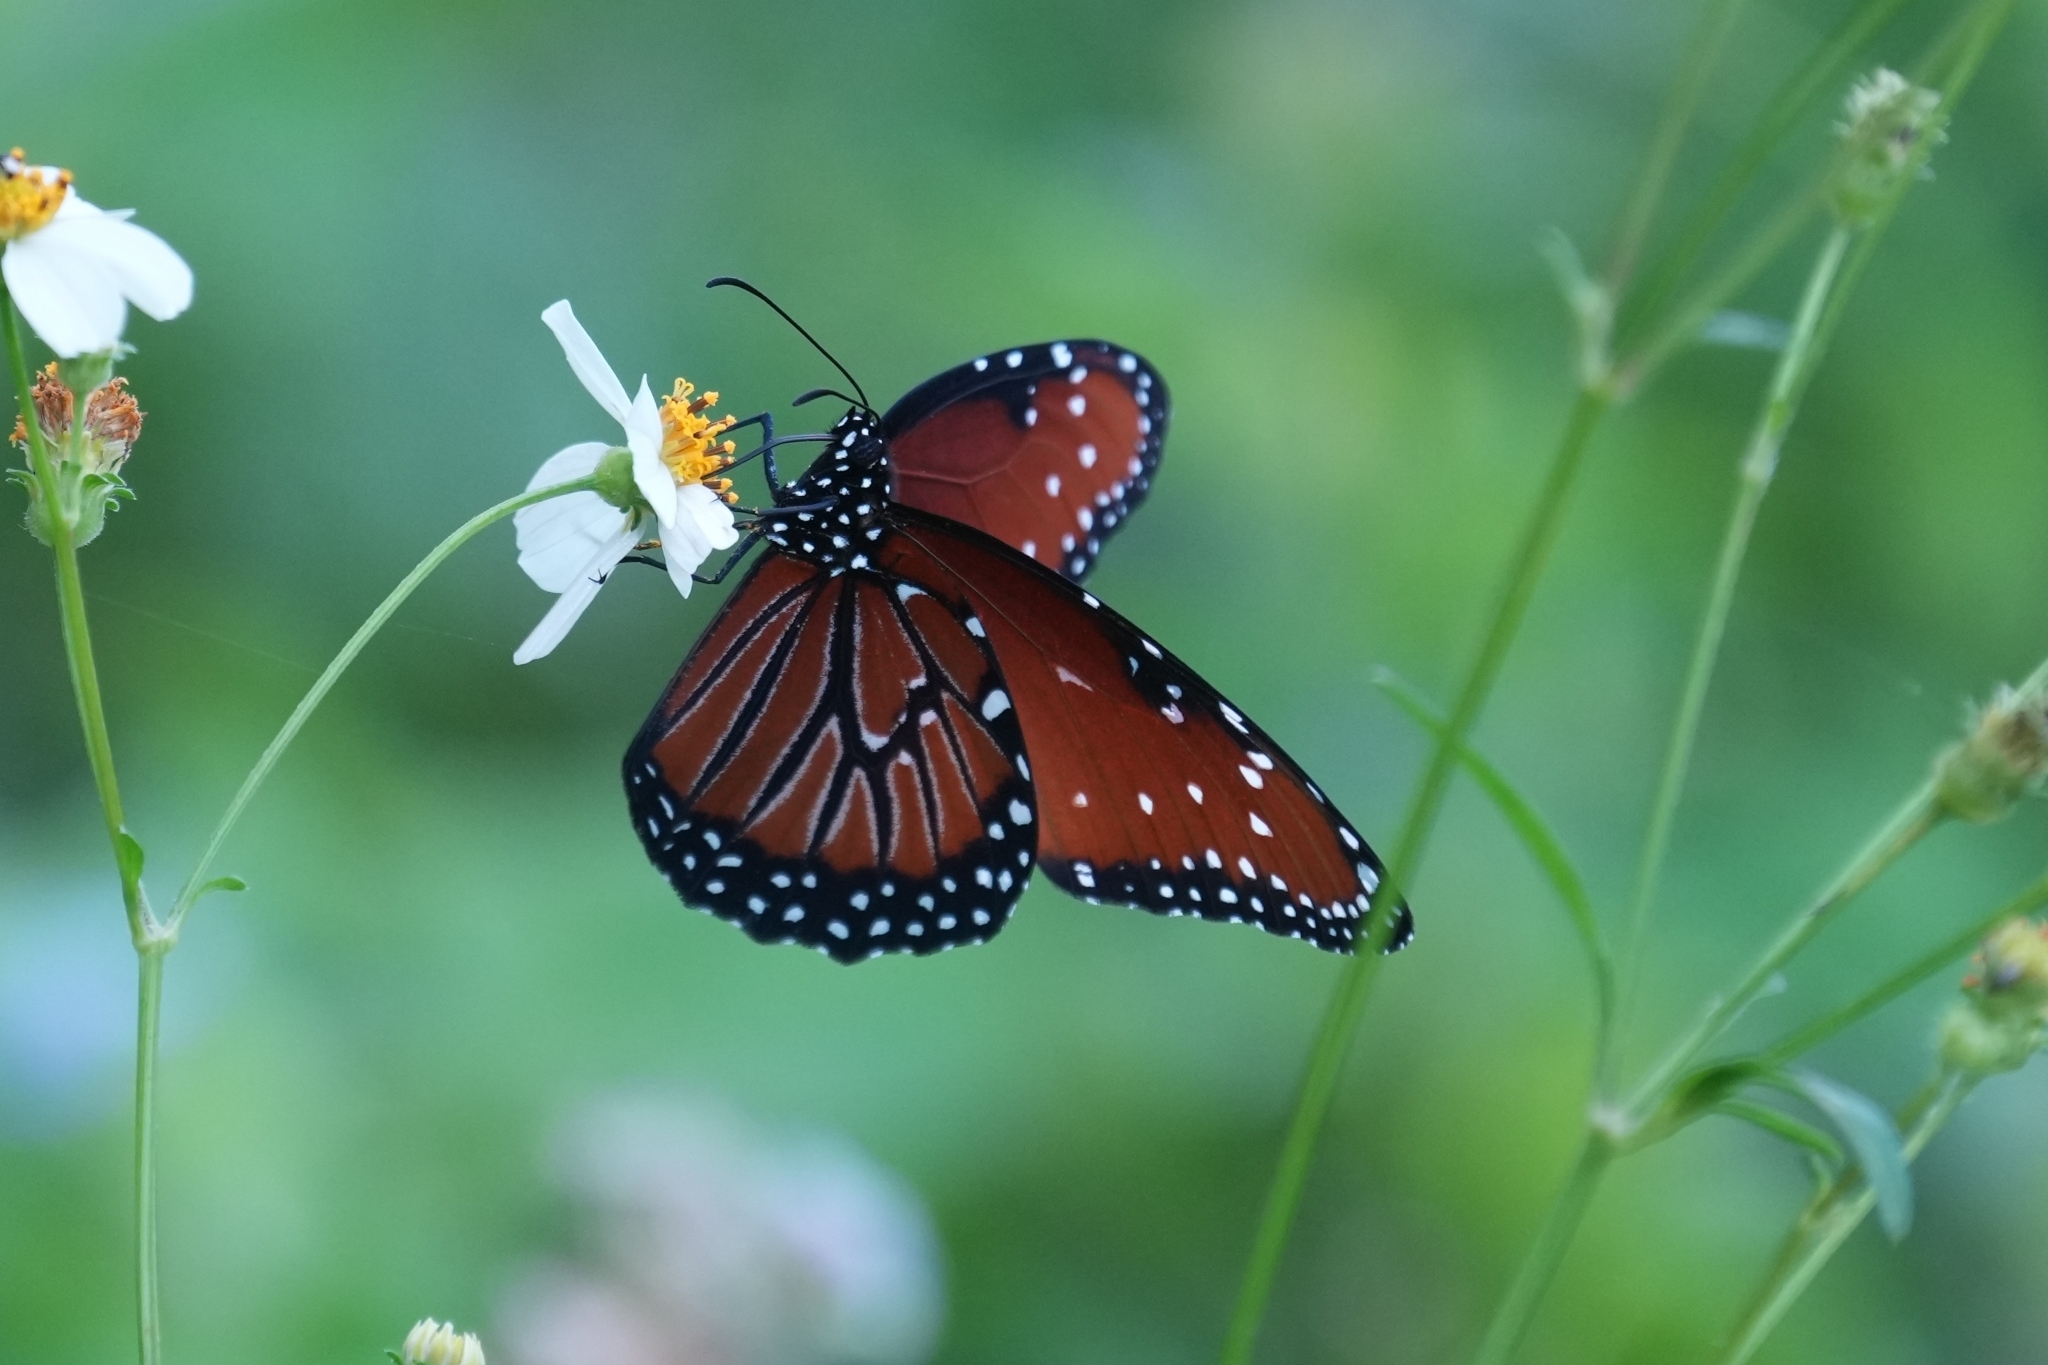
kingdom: Animalia
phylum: Arthropoda
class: Insecta
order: Lepidoptera
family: Nymphalidae
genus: Danaus
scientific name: Danaus gilippus
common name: Queen
